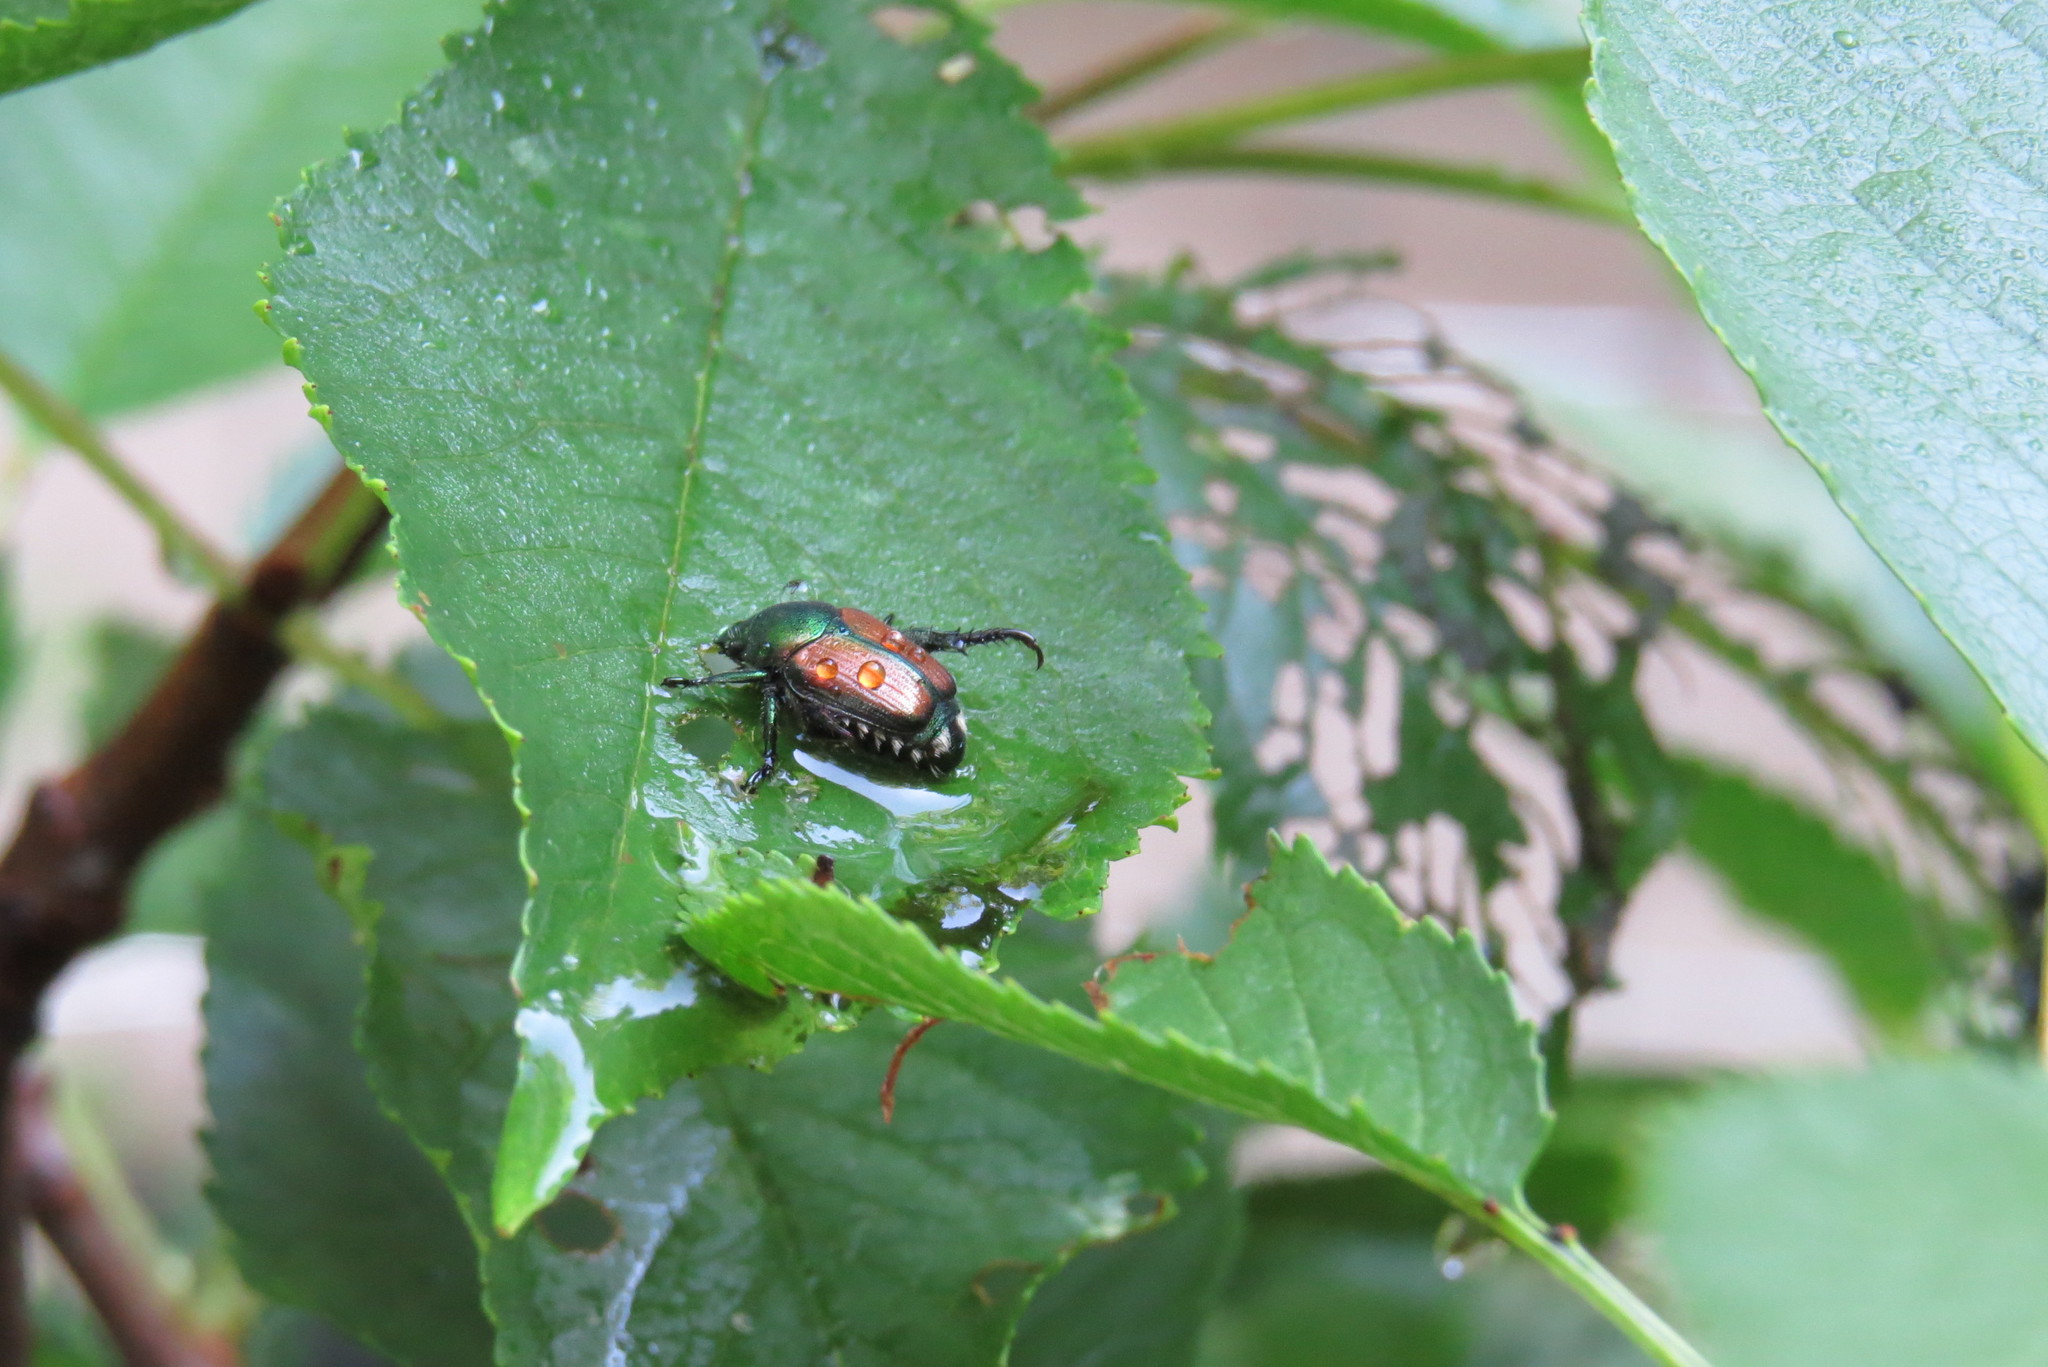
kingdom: Animalia
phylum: Arthropoda
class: Insecta
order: Coleoptera
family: Scarabaeidae
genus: Popillia
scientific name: Popillia japonica
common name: Japanese beetle
